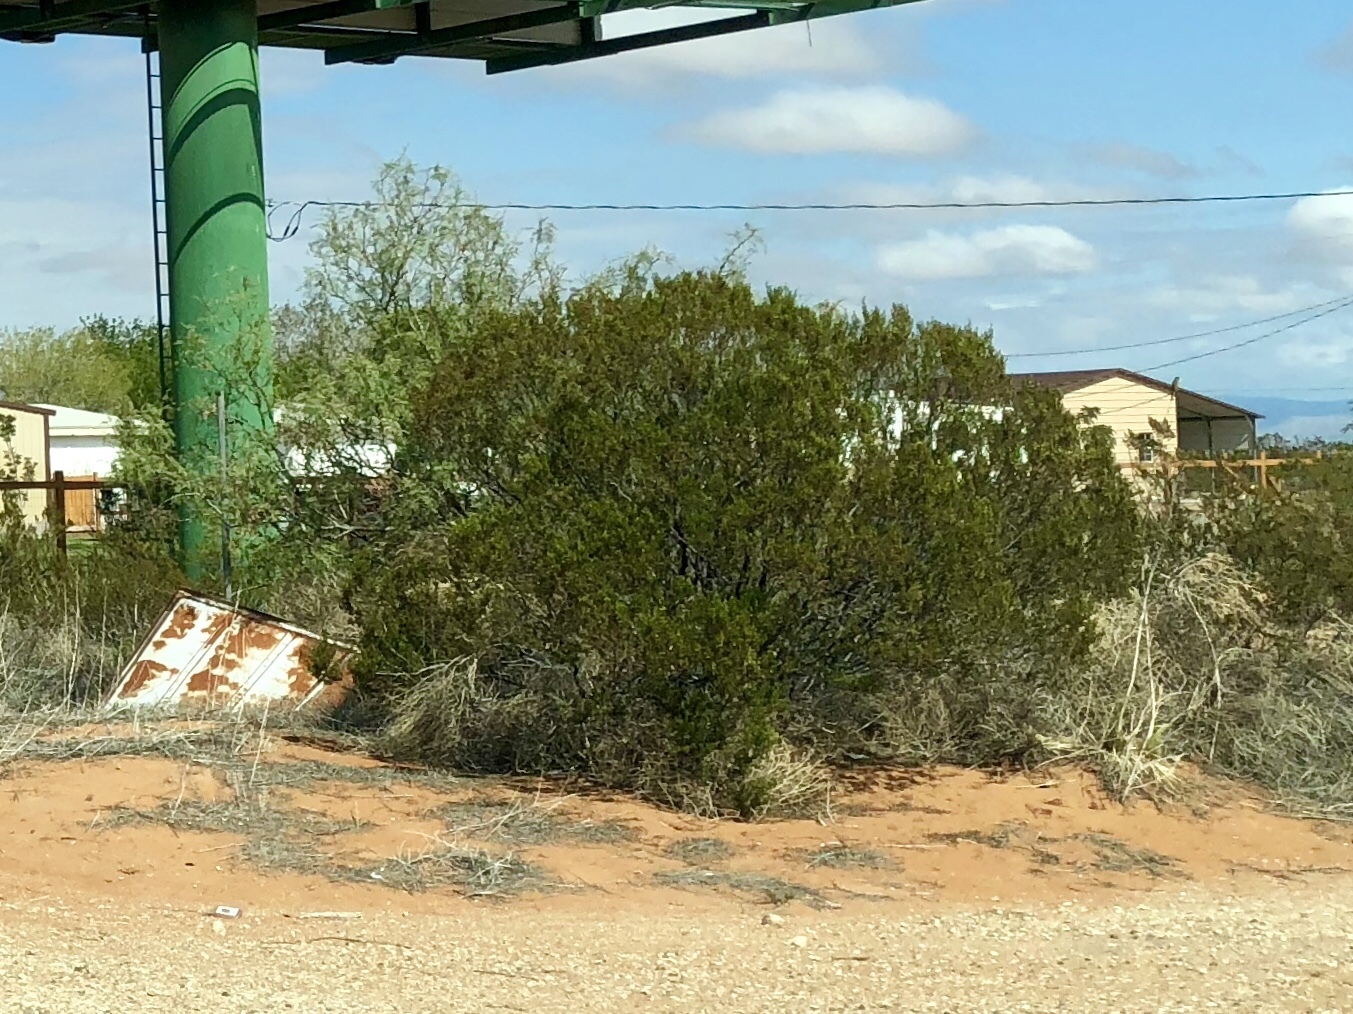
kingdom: Plantae
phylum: Tracheophyta
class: Magnoliopsida
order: Zygophyllales
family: Zygophyllaceae
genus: Larrea
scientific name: Larrea tridentata
